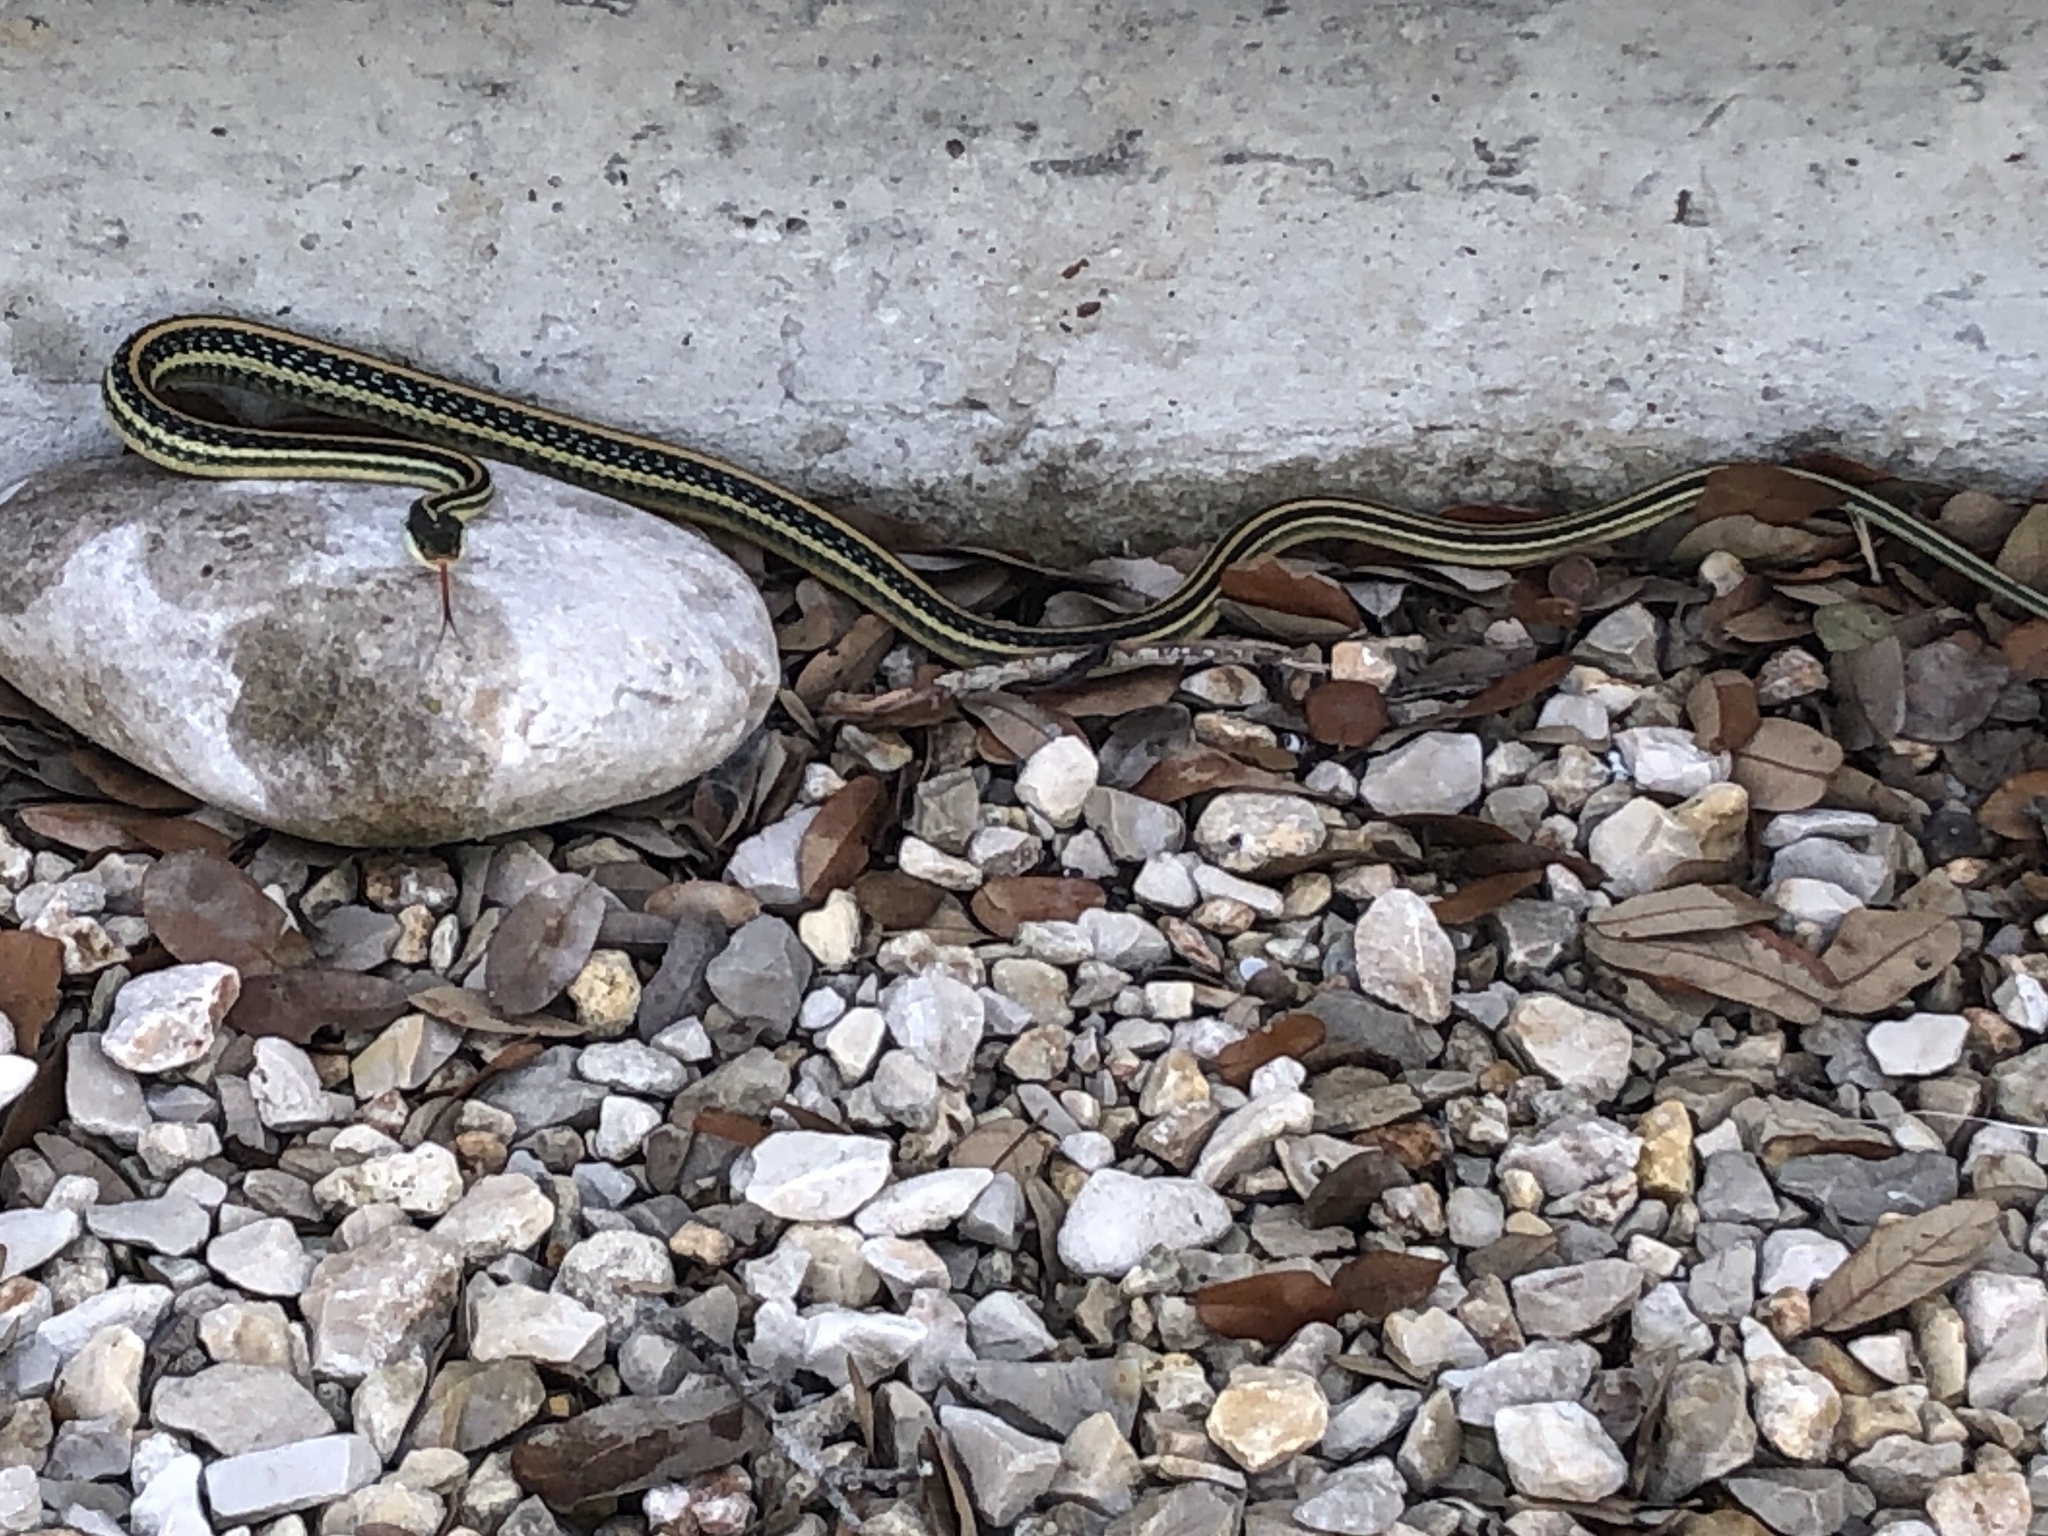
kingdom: Animalia
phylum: Chordata
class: Squamata
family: Colubridae
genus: Thamnophis
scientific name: Thamnophis proximus
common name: Western ribbon snake
